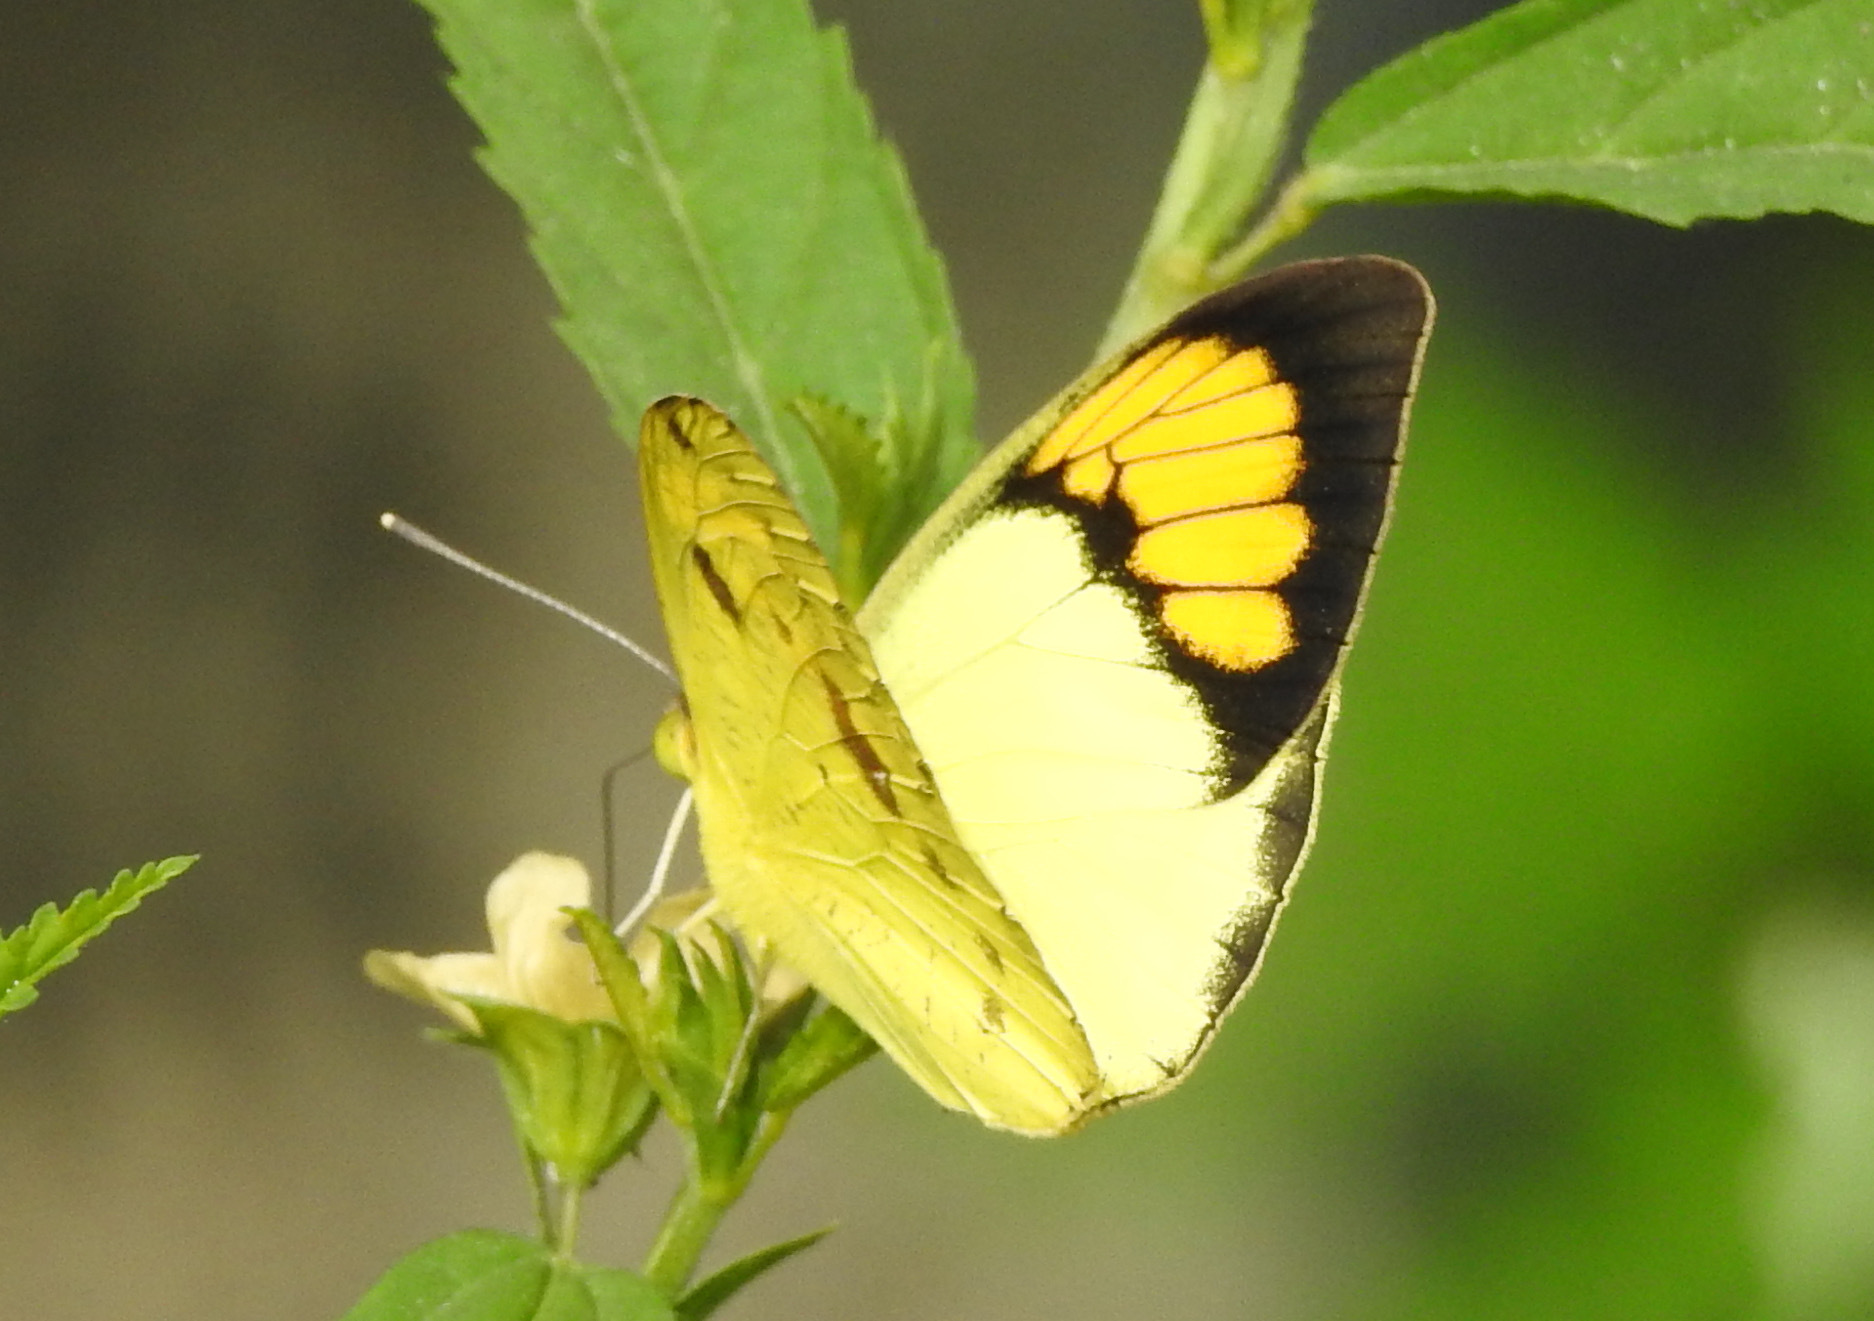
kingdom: Animalia
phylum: Arthropoda
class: Insecta
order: Lepidoptera
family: Pieridae
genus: Ixias
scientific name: Ixias pyrene
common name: Yellow orange tip
